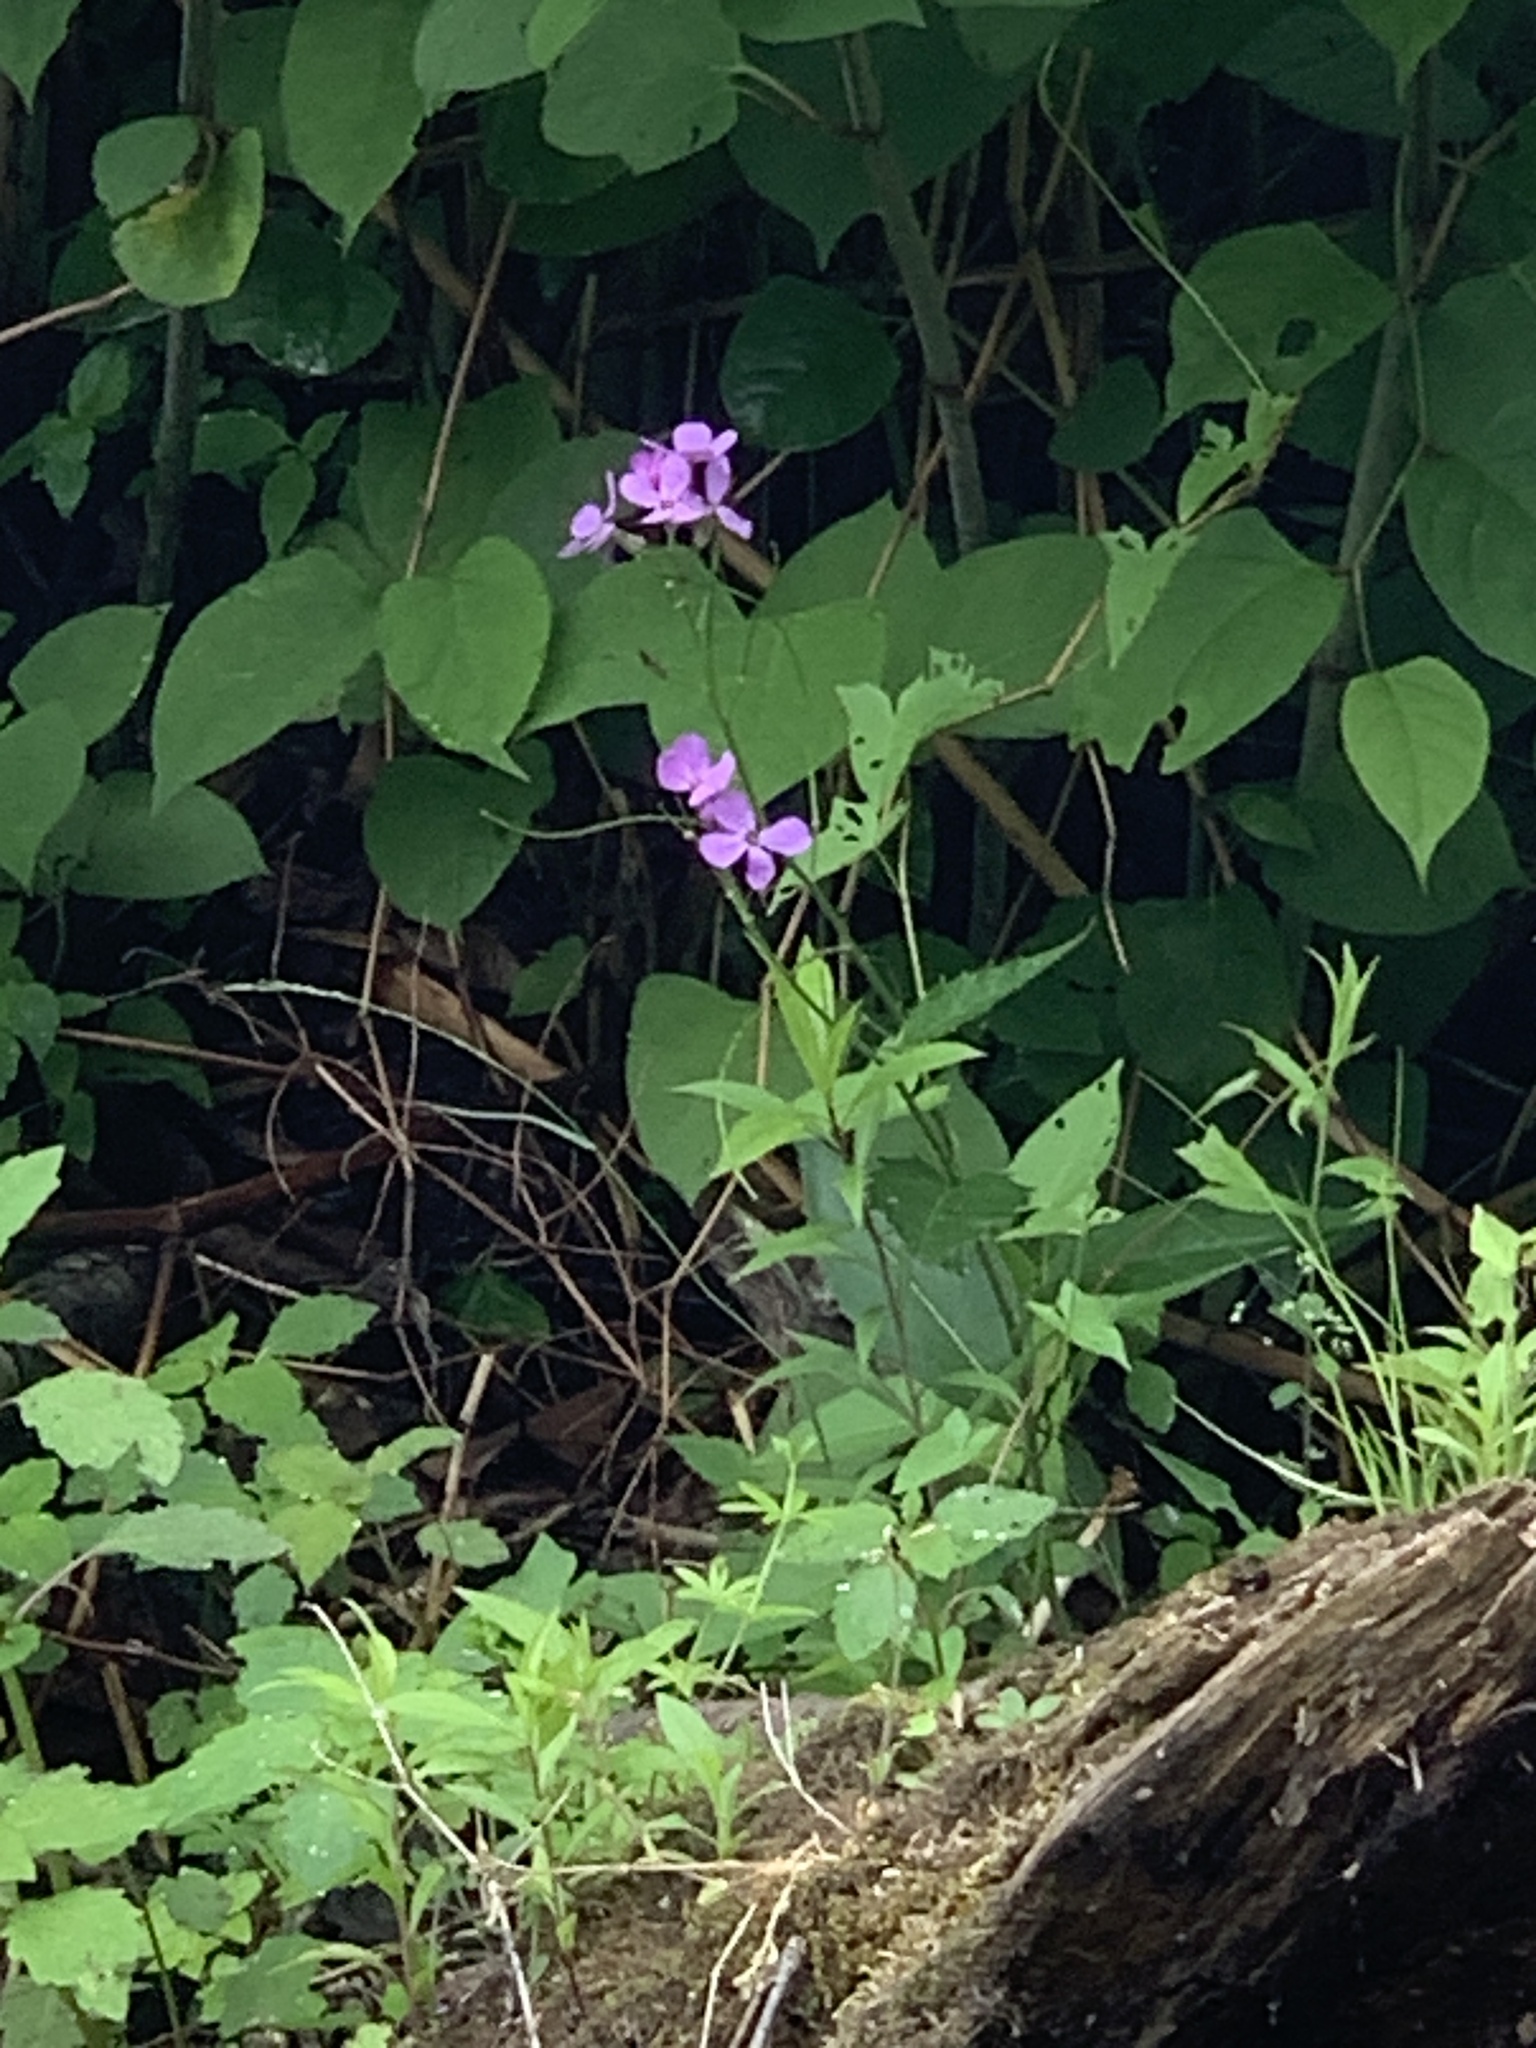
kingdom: Plantae
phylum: Tracheophyta
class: Magnoliopsida
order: Brassicales
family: Brassicaceae
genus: Hesperis
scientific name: Hesperis matronalis
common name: Dame's-violet
